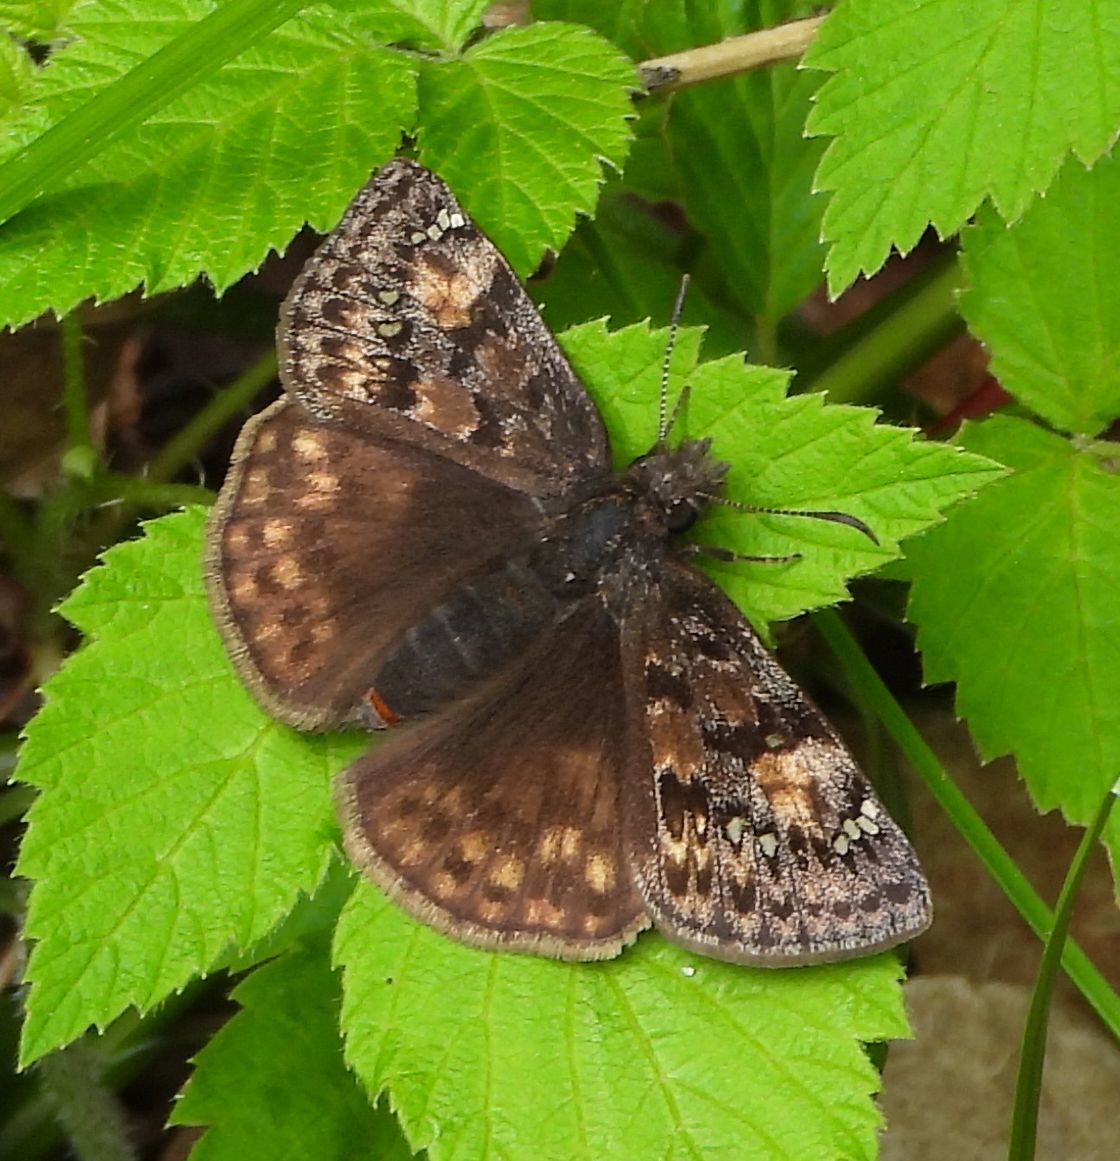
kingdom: Animalia
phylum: Arthropoda
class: Insecta
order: Lepidoptera
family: Hesperiidae
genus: Erynnis
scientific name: Erynnis juvenalis
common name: Juvenal's duskywing
